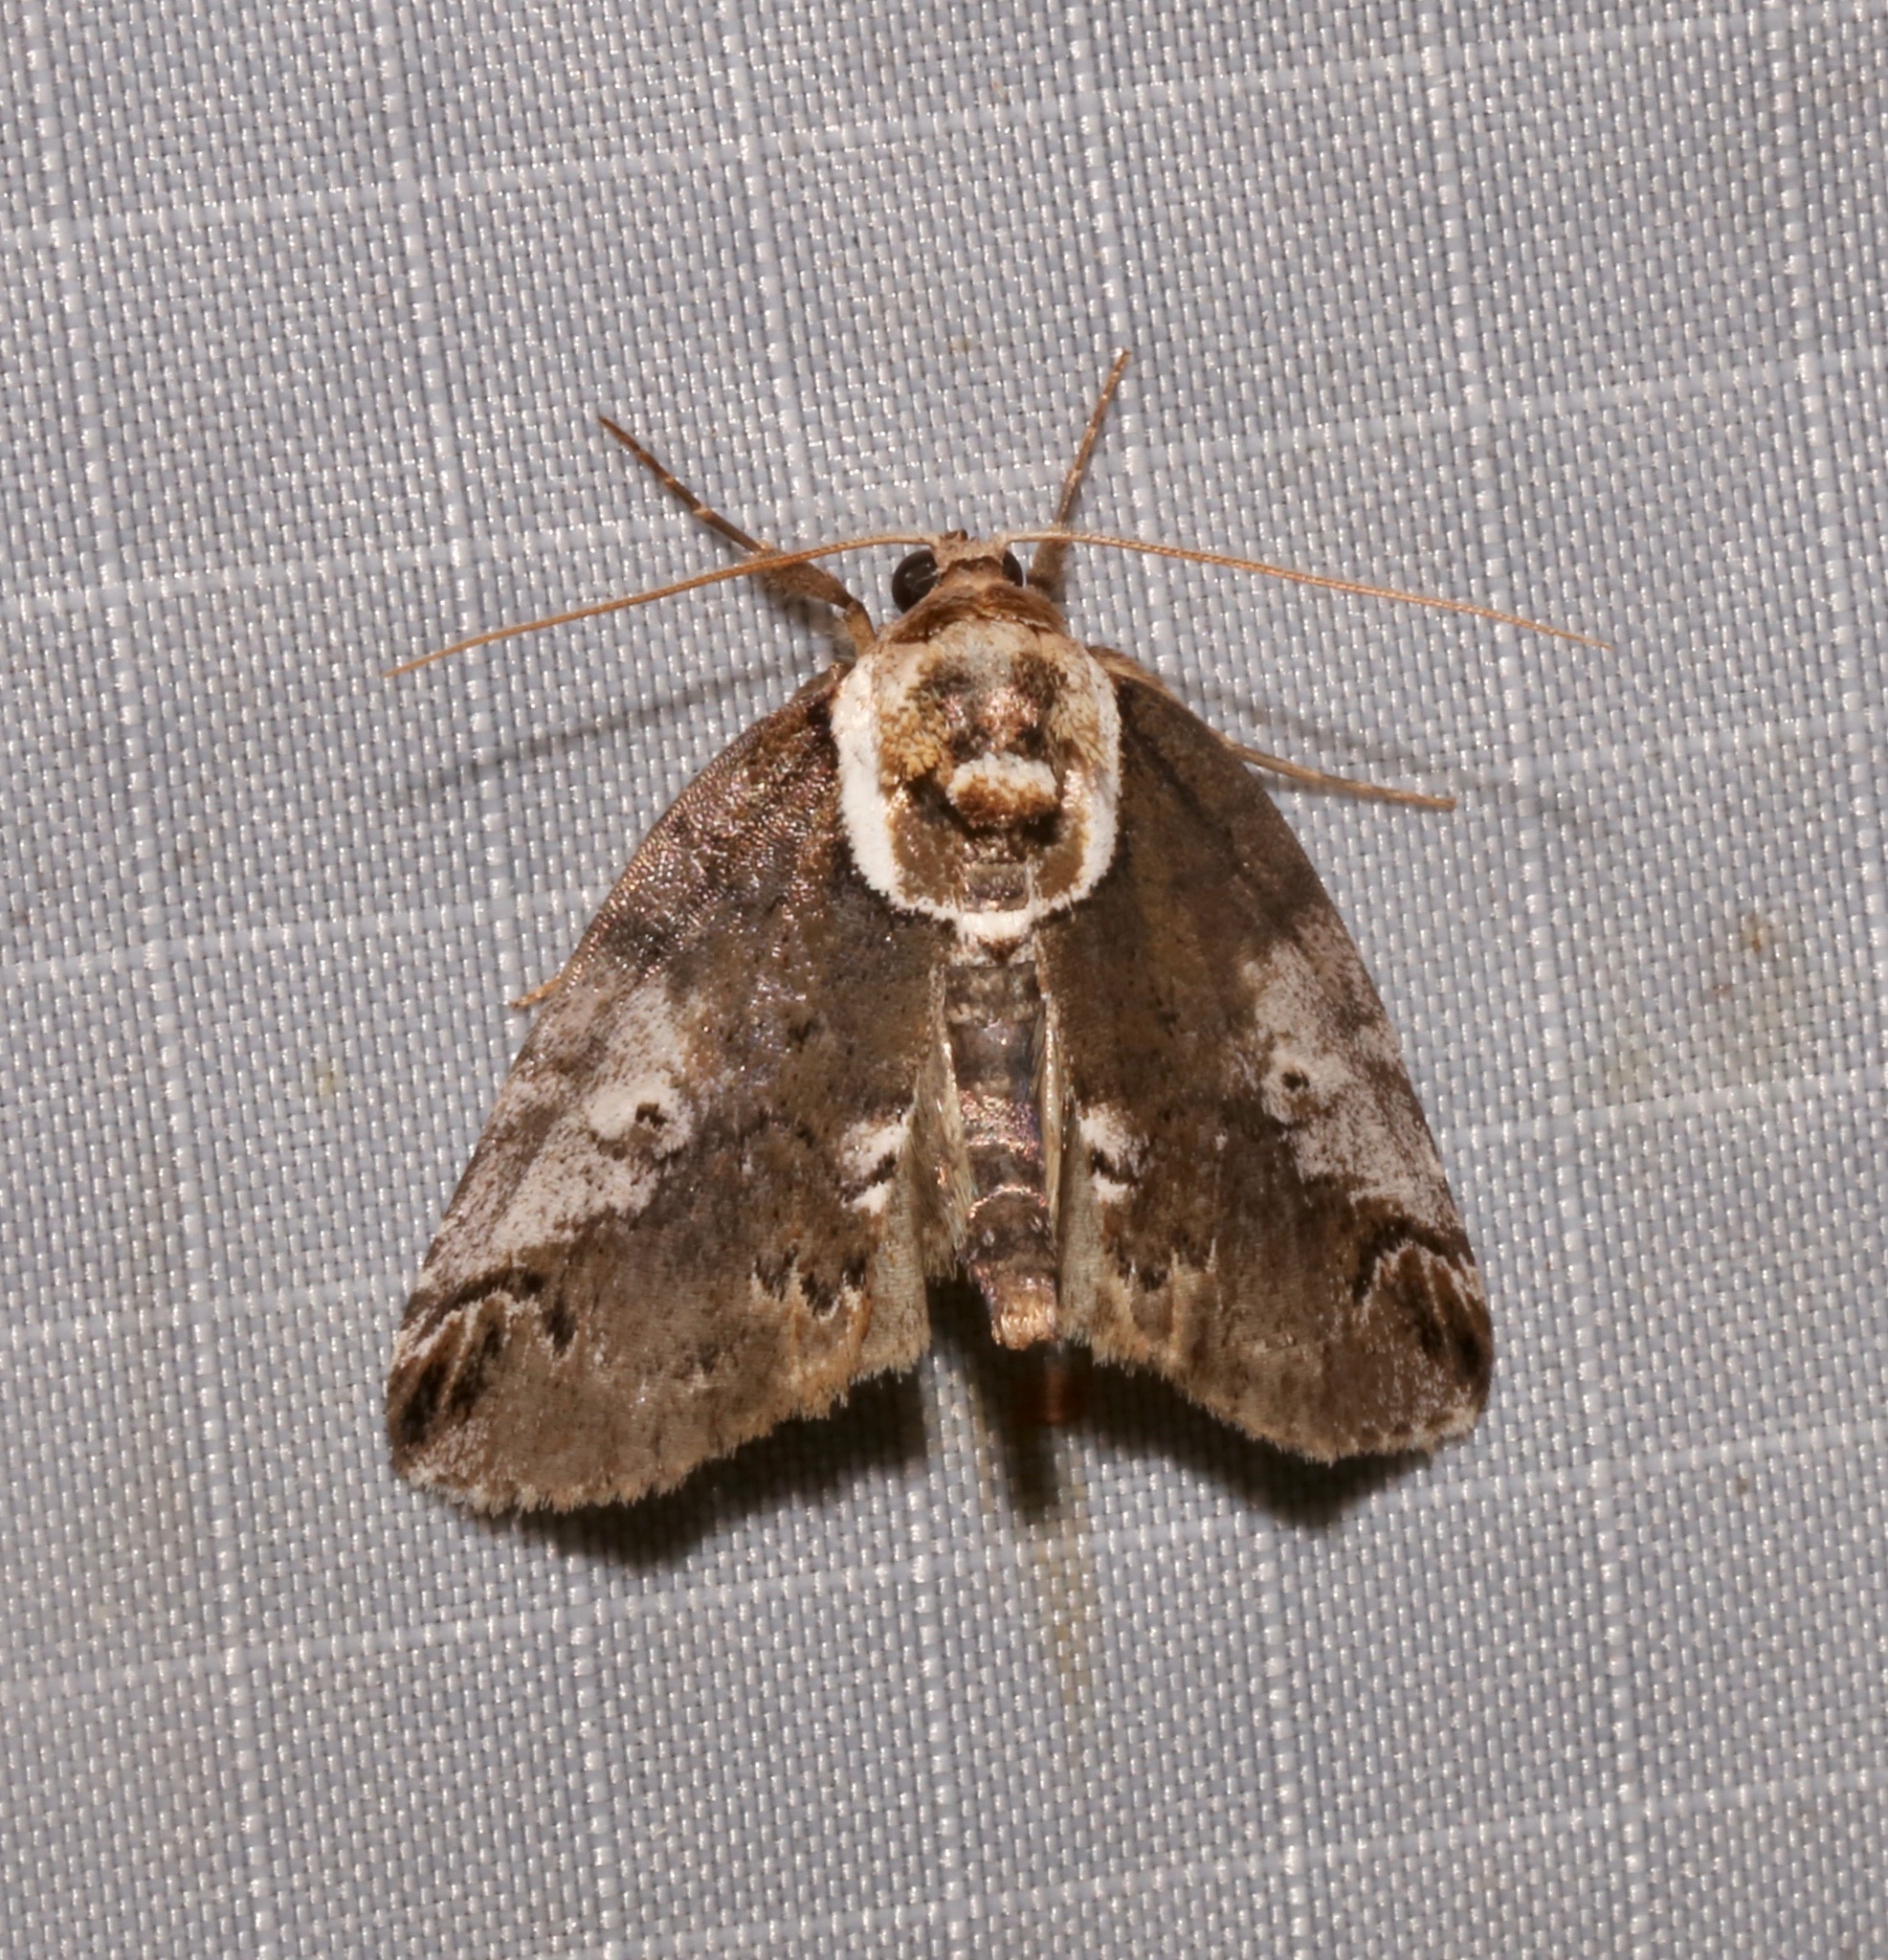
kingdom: Animalia
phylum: Arthropoda
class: Insecta
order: Lepidoptera
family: Nolidae
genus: Baileya
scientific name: Baileya ophthalmica
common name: Eyed baileya moth
